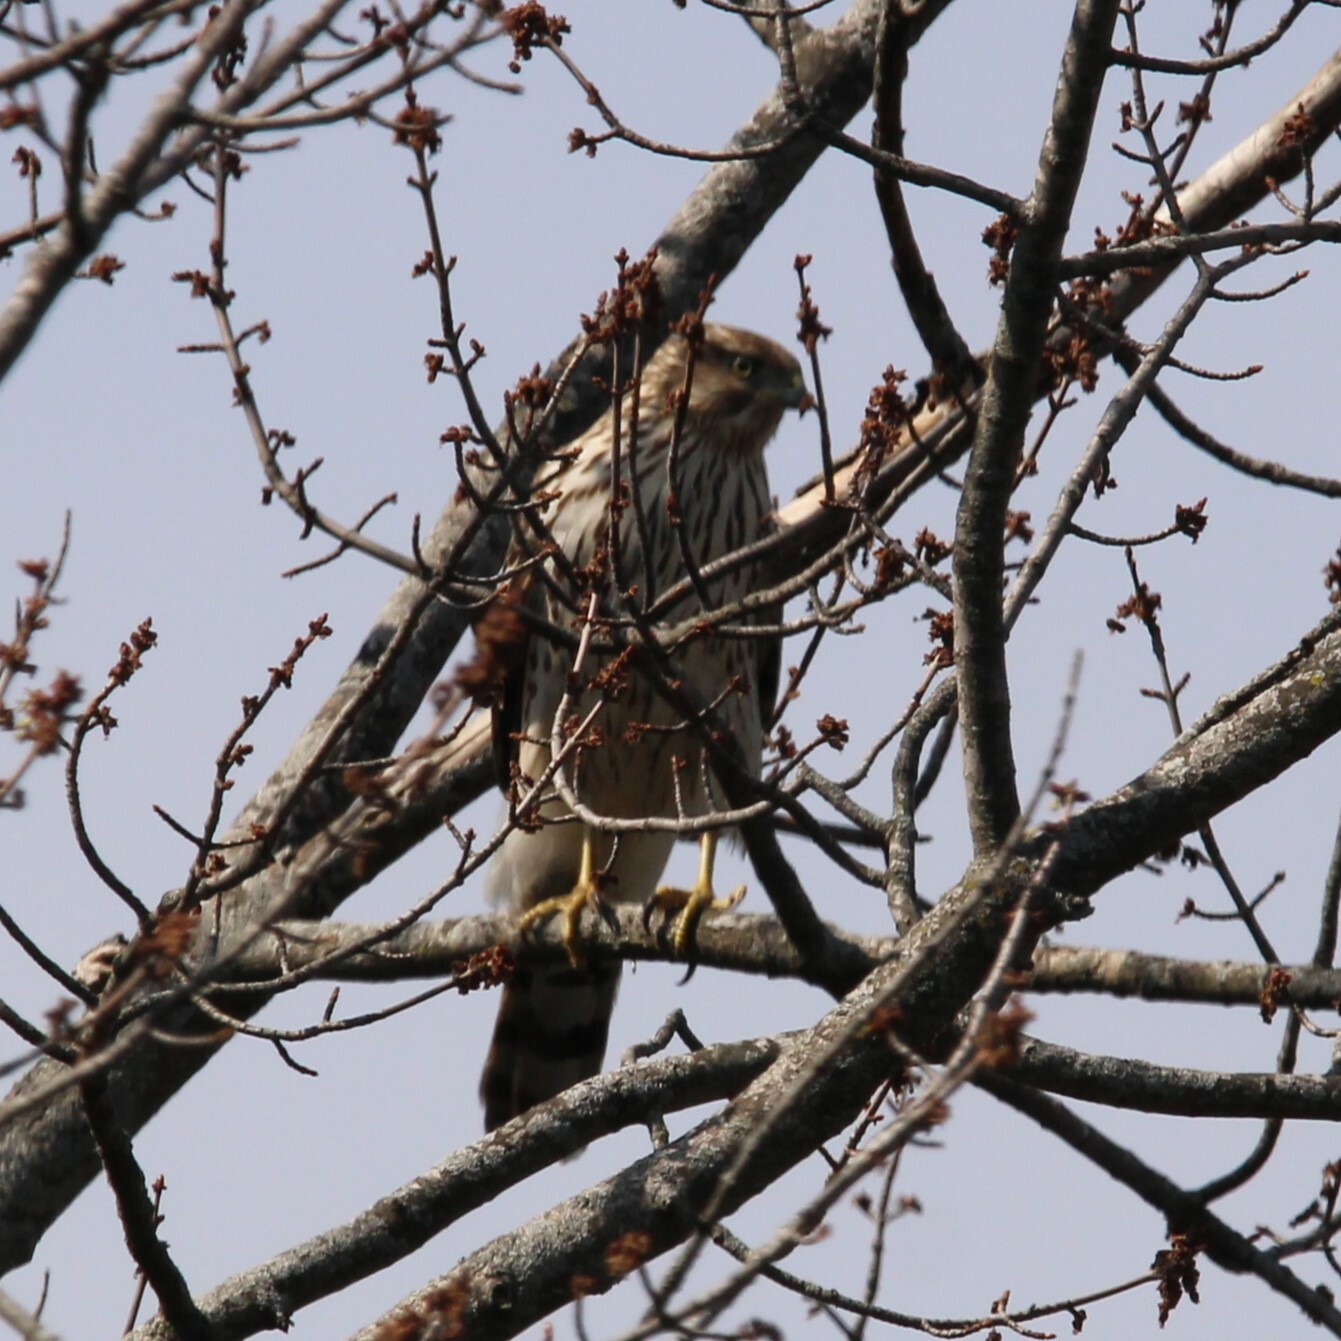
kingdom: Animalia
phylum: Chordata
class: Aves
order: Accipitriformes
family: Accipitridae
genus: Accipiter
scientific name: Accipiter cooperii
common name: Cooper's hawk
